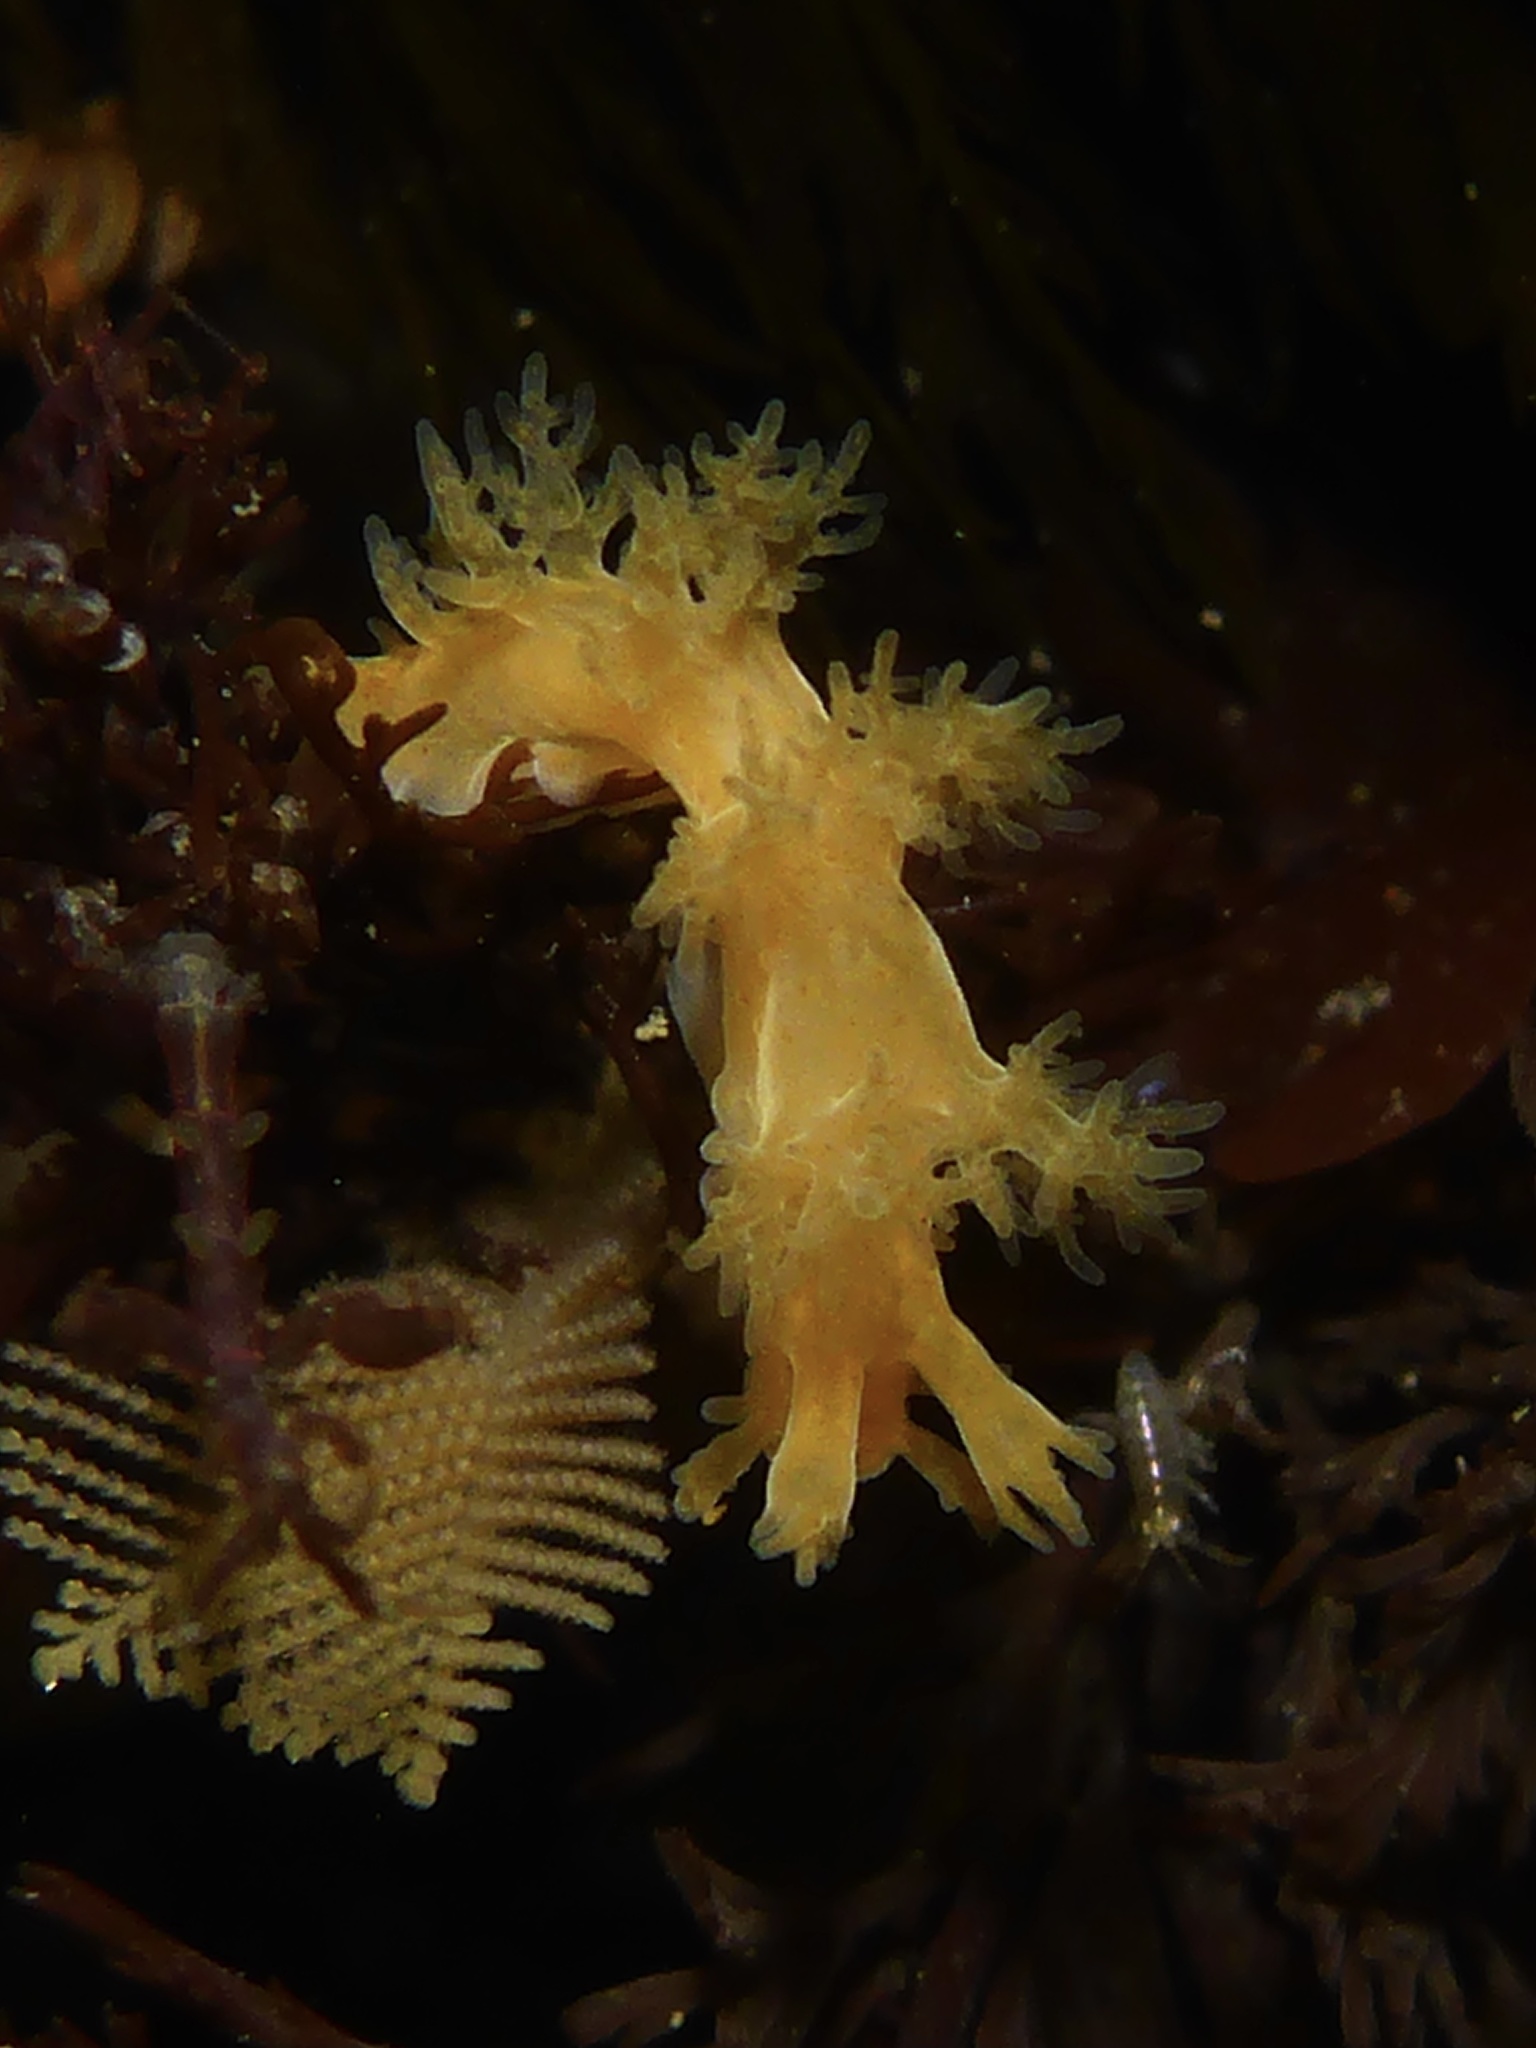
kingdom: Animalia
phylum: Mollusca
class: Gastropoda
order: Nudibranchia
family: Dendronotidae
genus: Dendronotus
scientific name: Dendronotus subramosus
